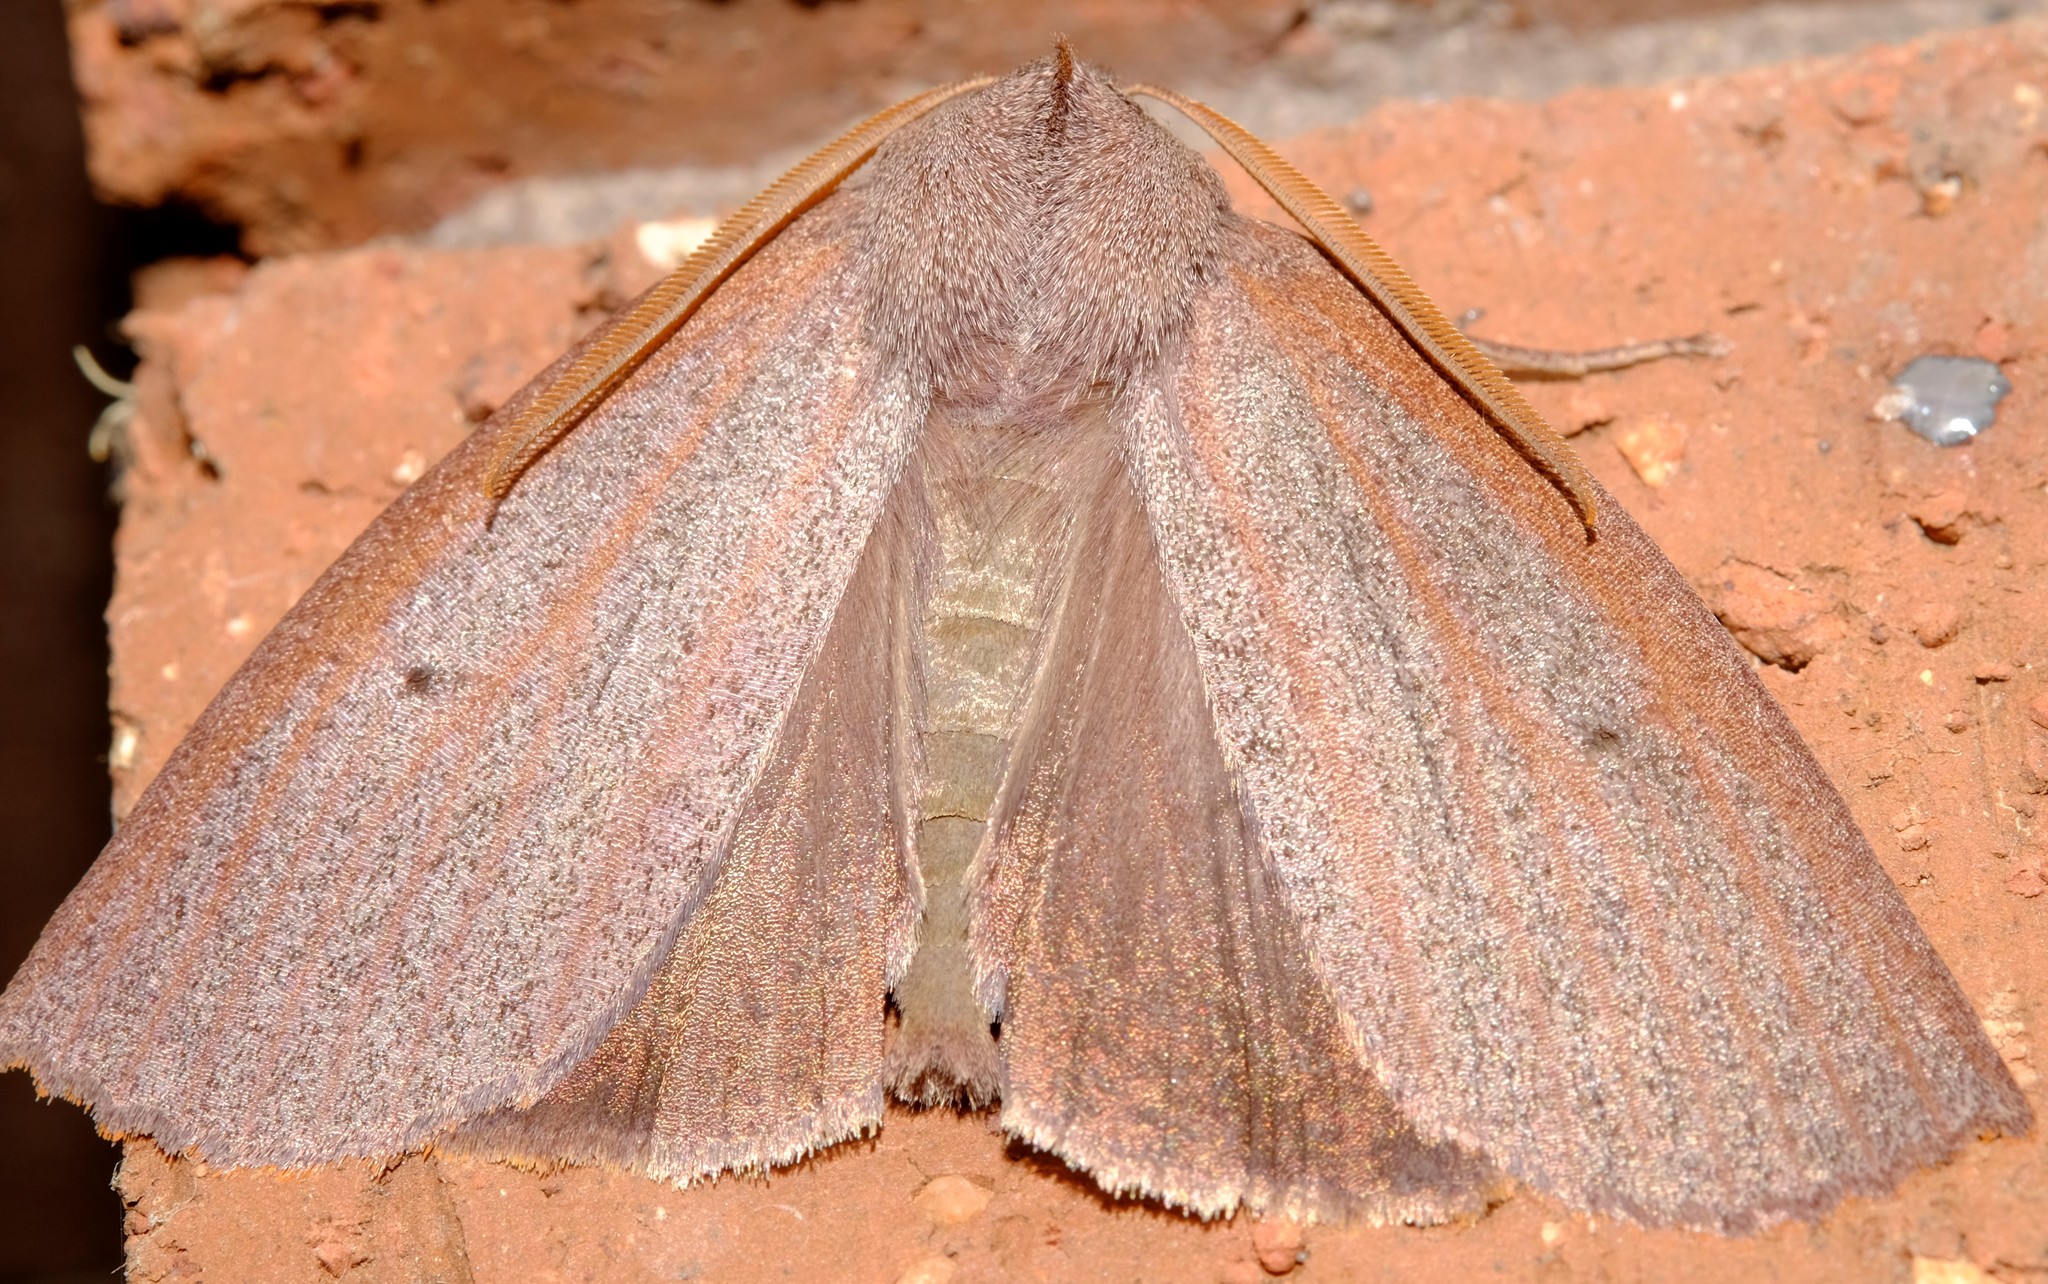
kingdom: Animalia
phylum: Arthropoda
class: Insecta
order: Lepidoptera
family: Geometridae
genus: Paralaea
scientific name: Paralaea porphyrinaria
